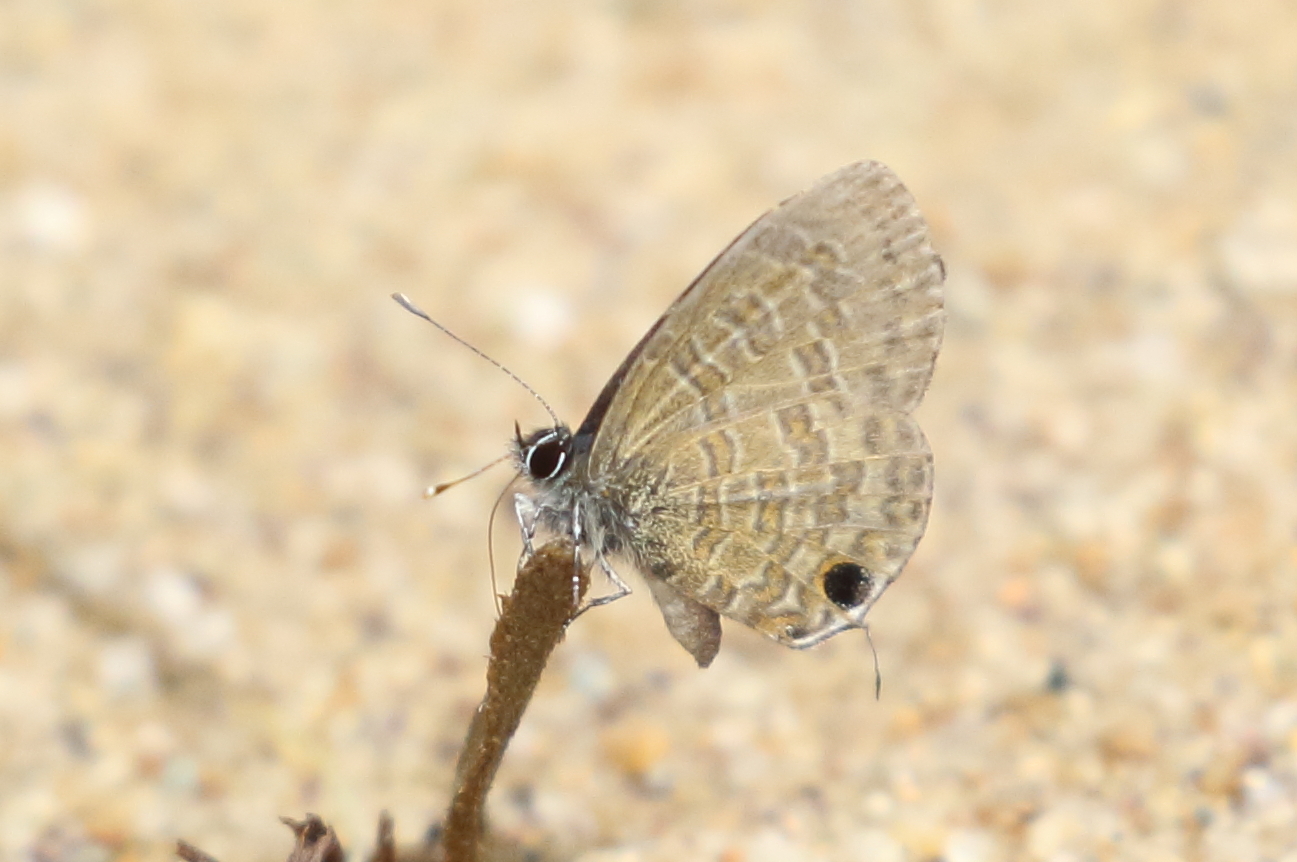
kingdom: Animalia
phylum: Arthropoda
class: Insecta
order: Lepidoptera
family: Lycaenidae
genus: Prosotas
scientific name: Prosotas nora
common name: Common line blue
